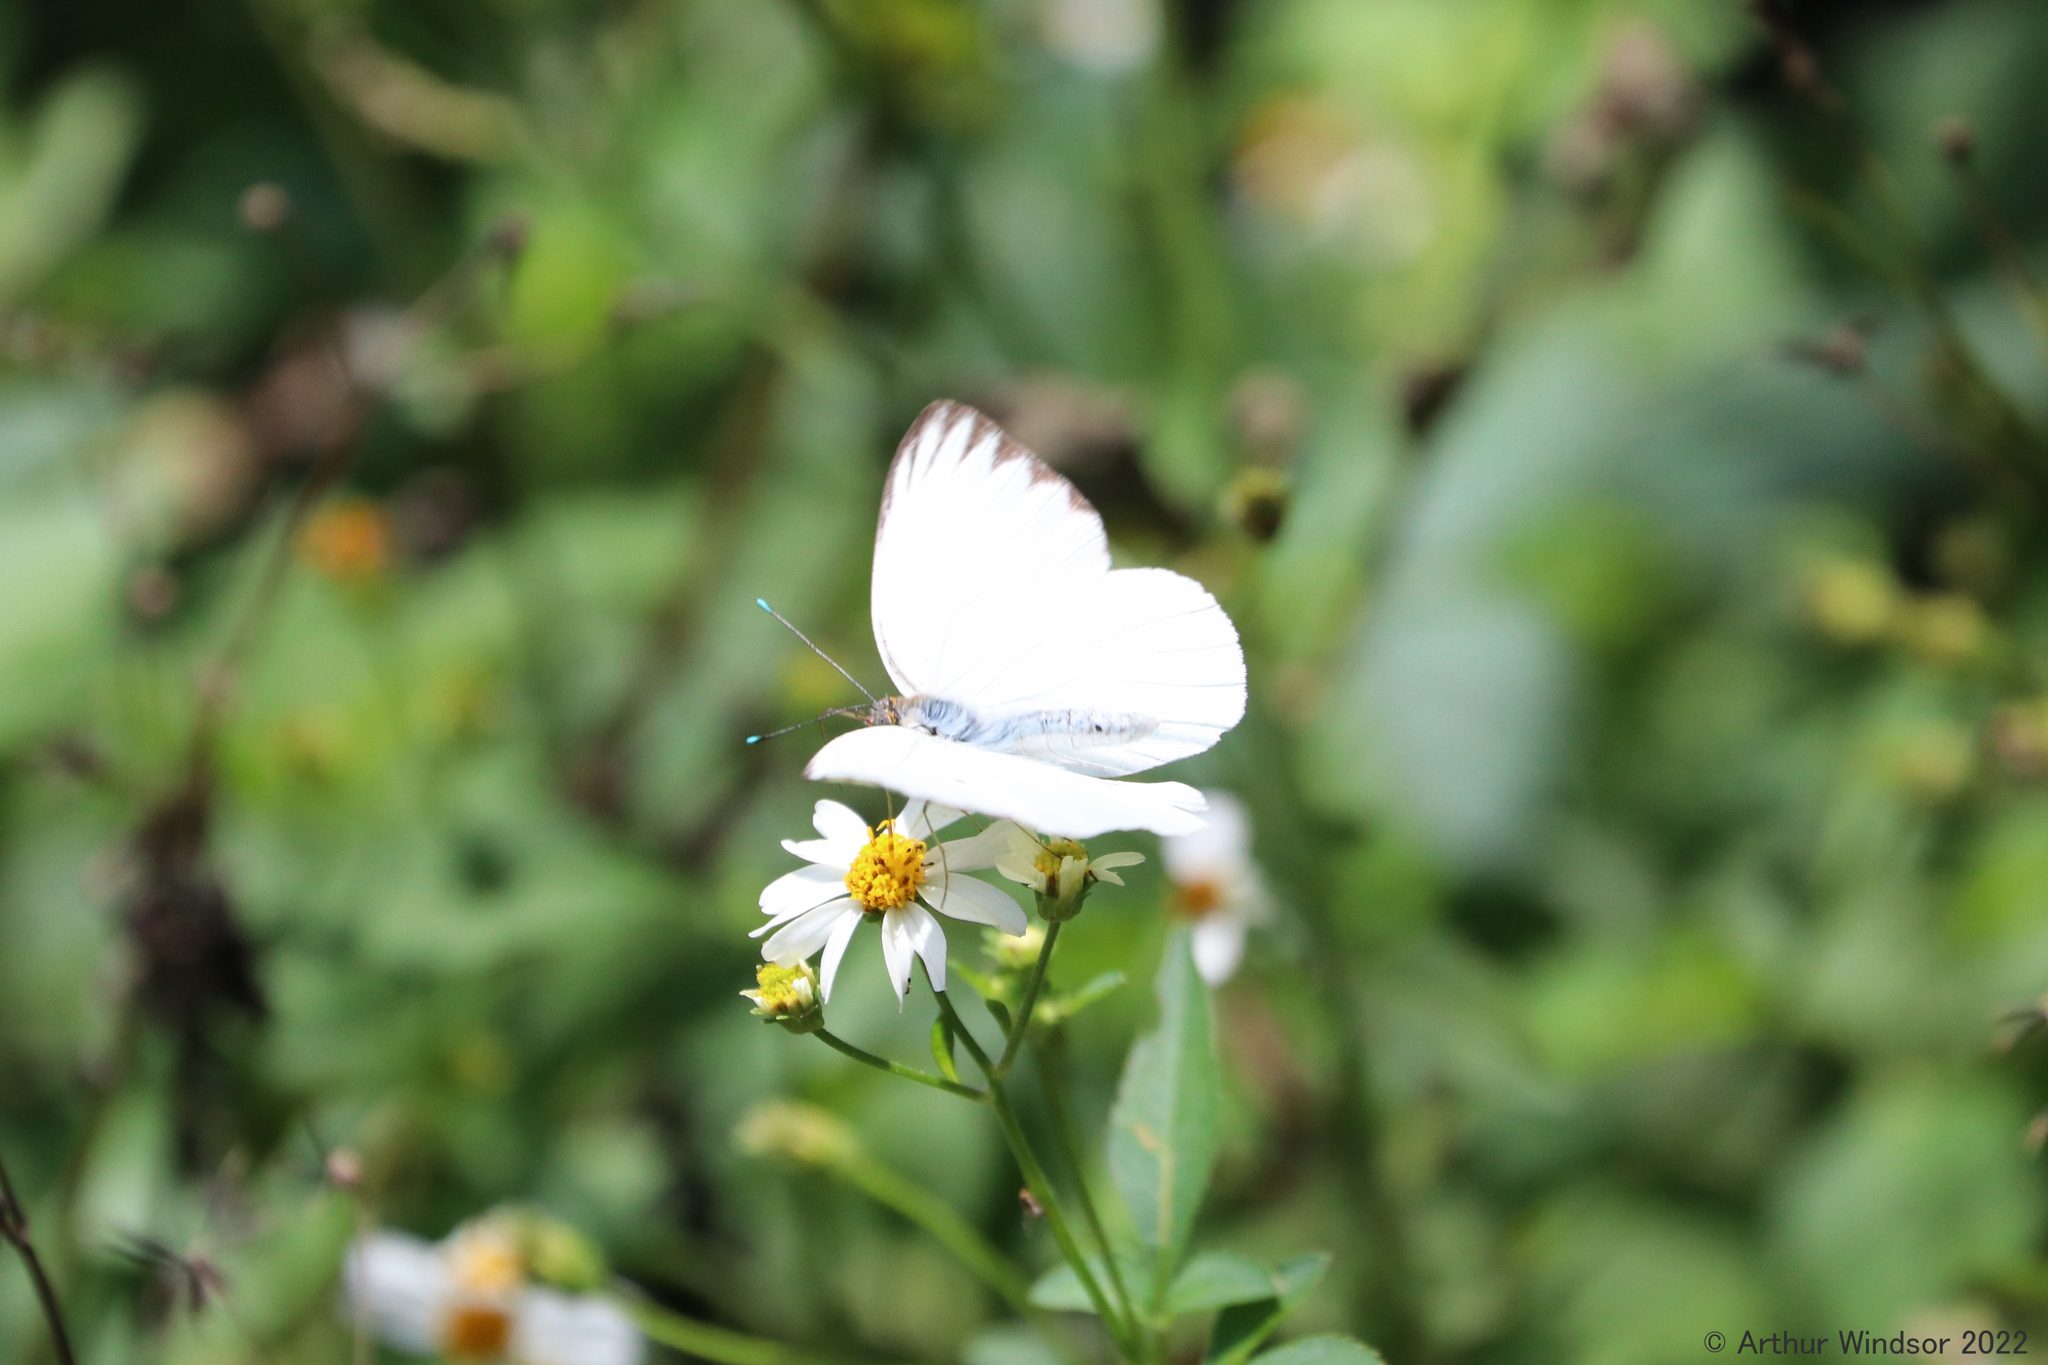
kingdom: Animalia
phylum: Arthropoda
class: Insecta
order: Lepidoptera
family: Pieridae
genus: Ascia
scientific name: Ascia monuste
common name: Great southern white
